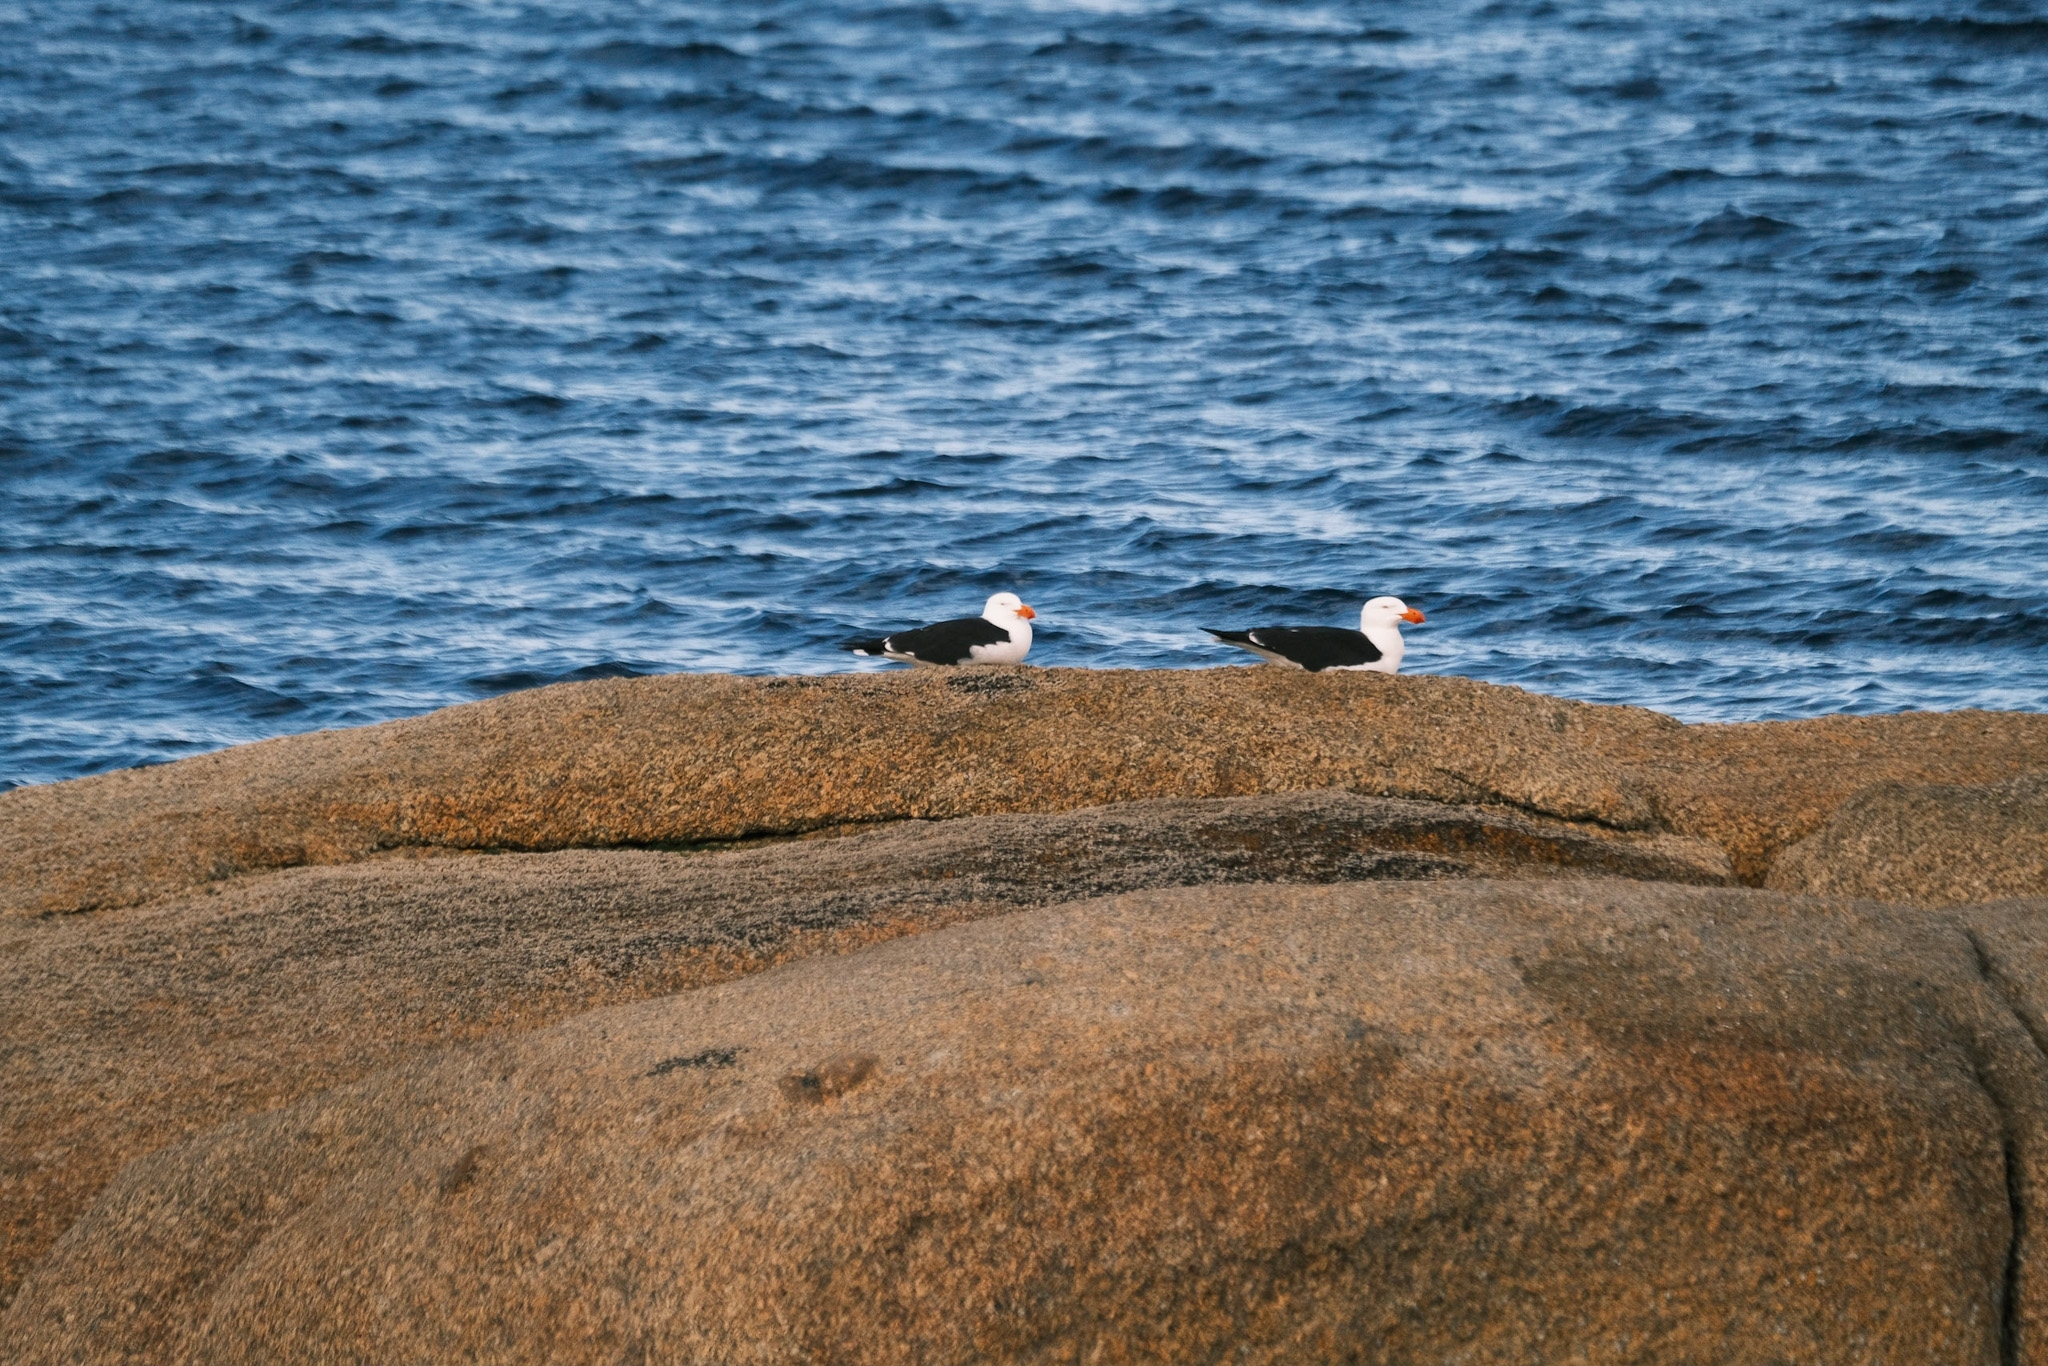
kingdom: Animalia
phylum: Chordata
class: Aves
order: Charadriiformes
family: Laridae
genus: Larus
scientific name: Larus pacificus
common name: Pacific gull
